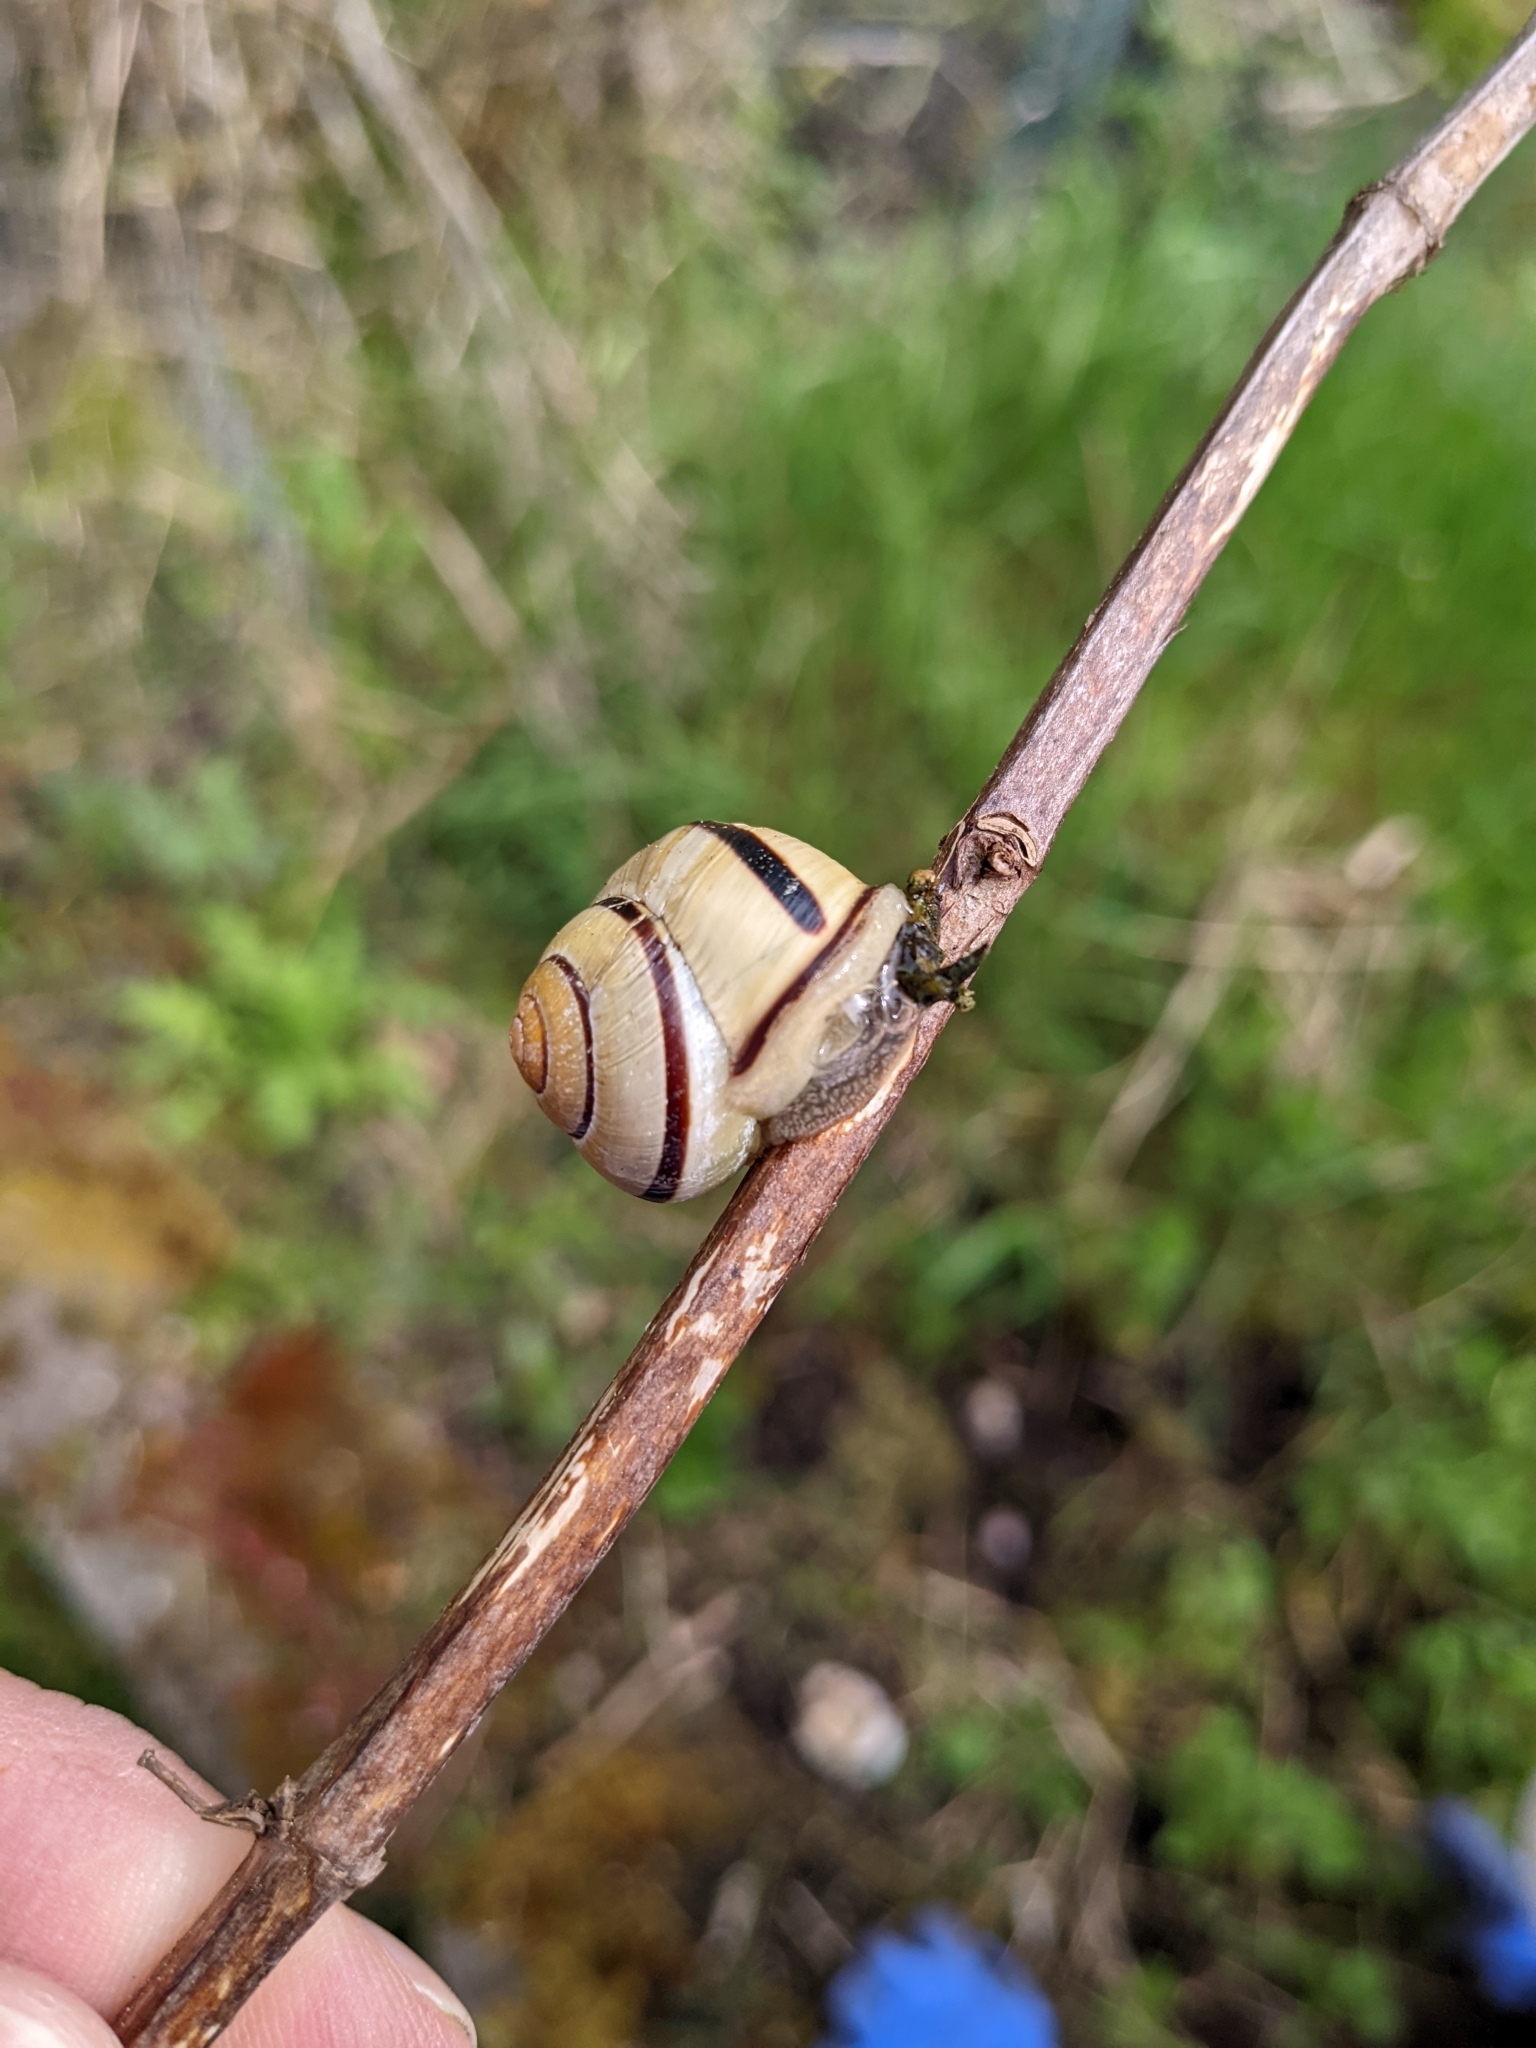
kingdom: Animalia
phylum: Mollusca
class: Gastropoda
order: Stylommatophora
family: Helicidae
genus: Cepaea
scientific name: Cepaea nemoralis
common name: Grovesnail
